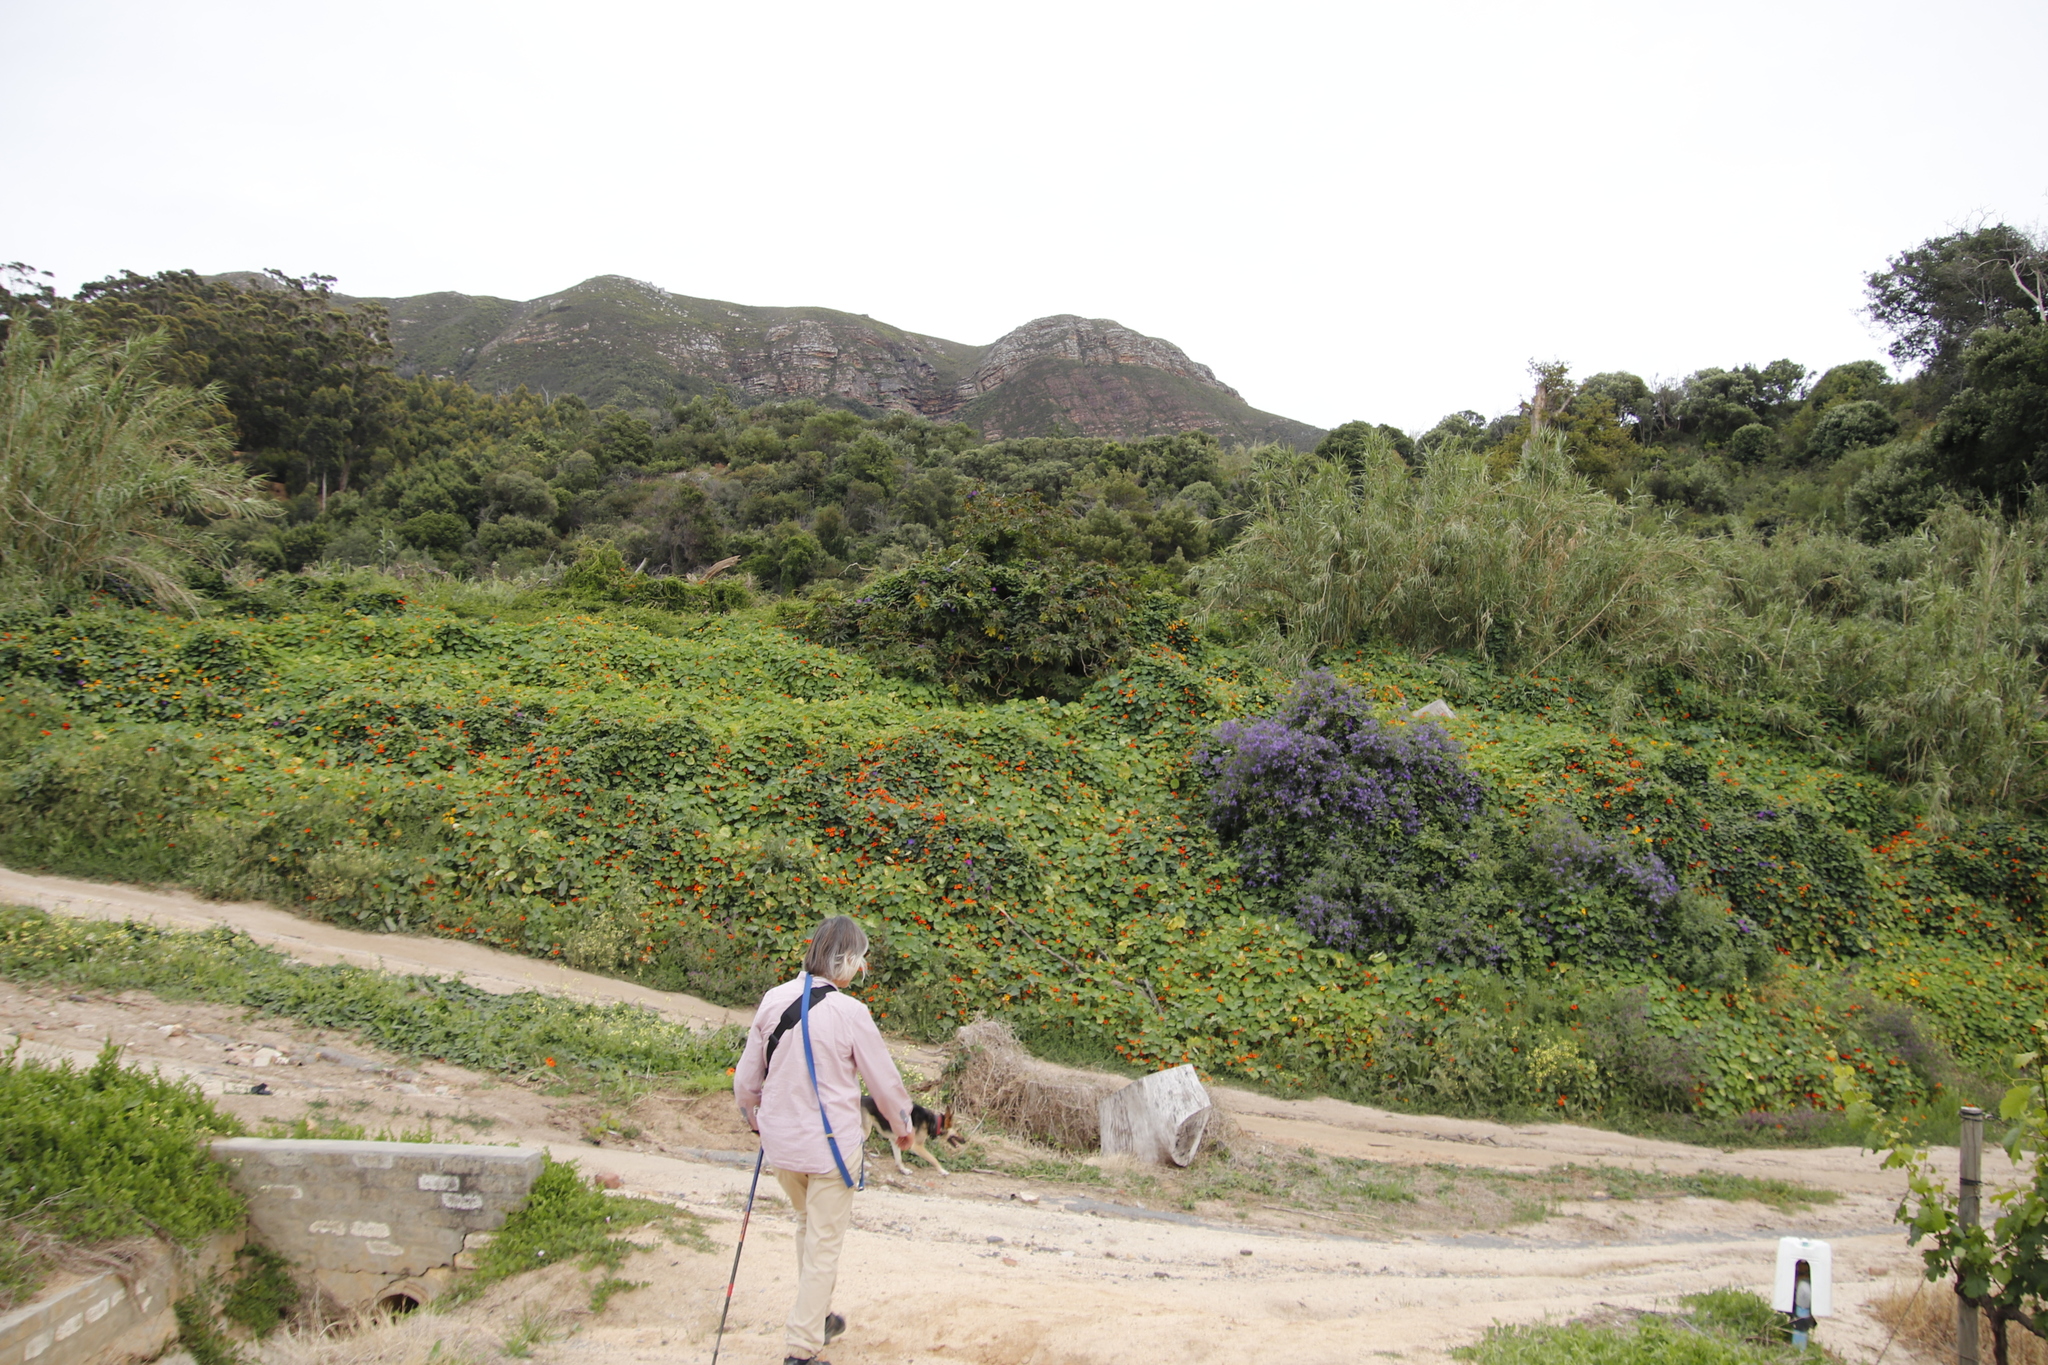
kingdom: Plantae
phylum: Tracheophyta
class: Magnoliopsida
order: Malpighiales
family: Euphorbiaceae
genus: Ricinus
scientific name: Ricinus communis
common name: Castor-oil-plant
